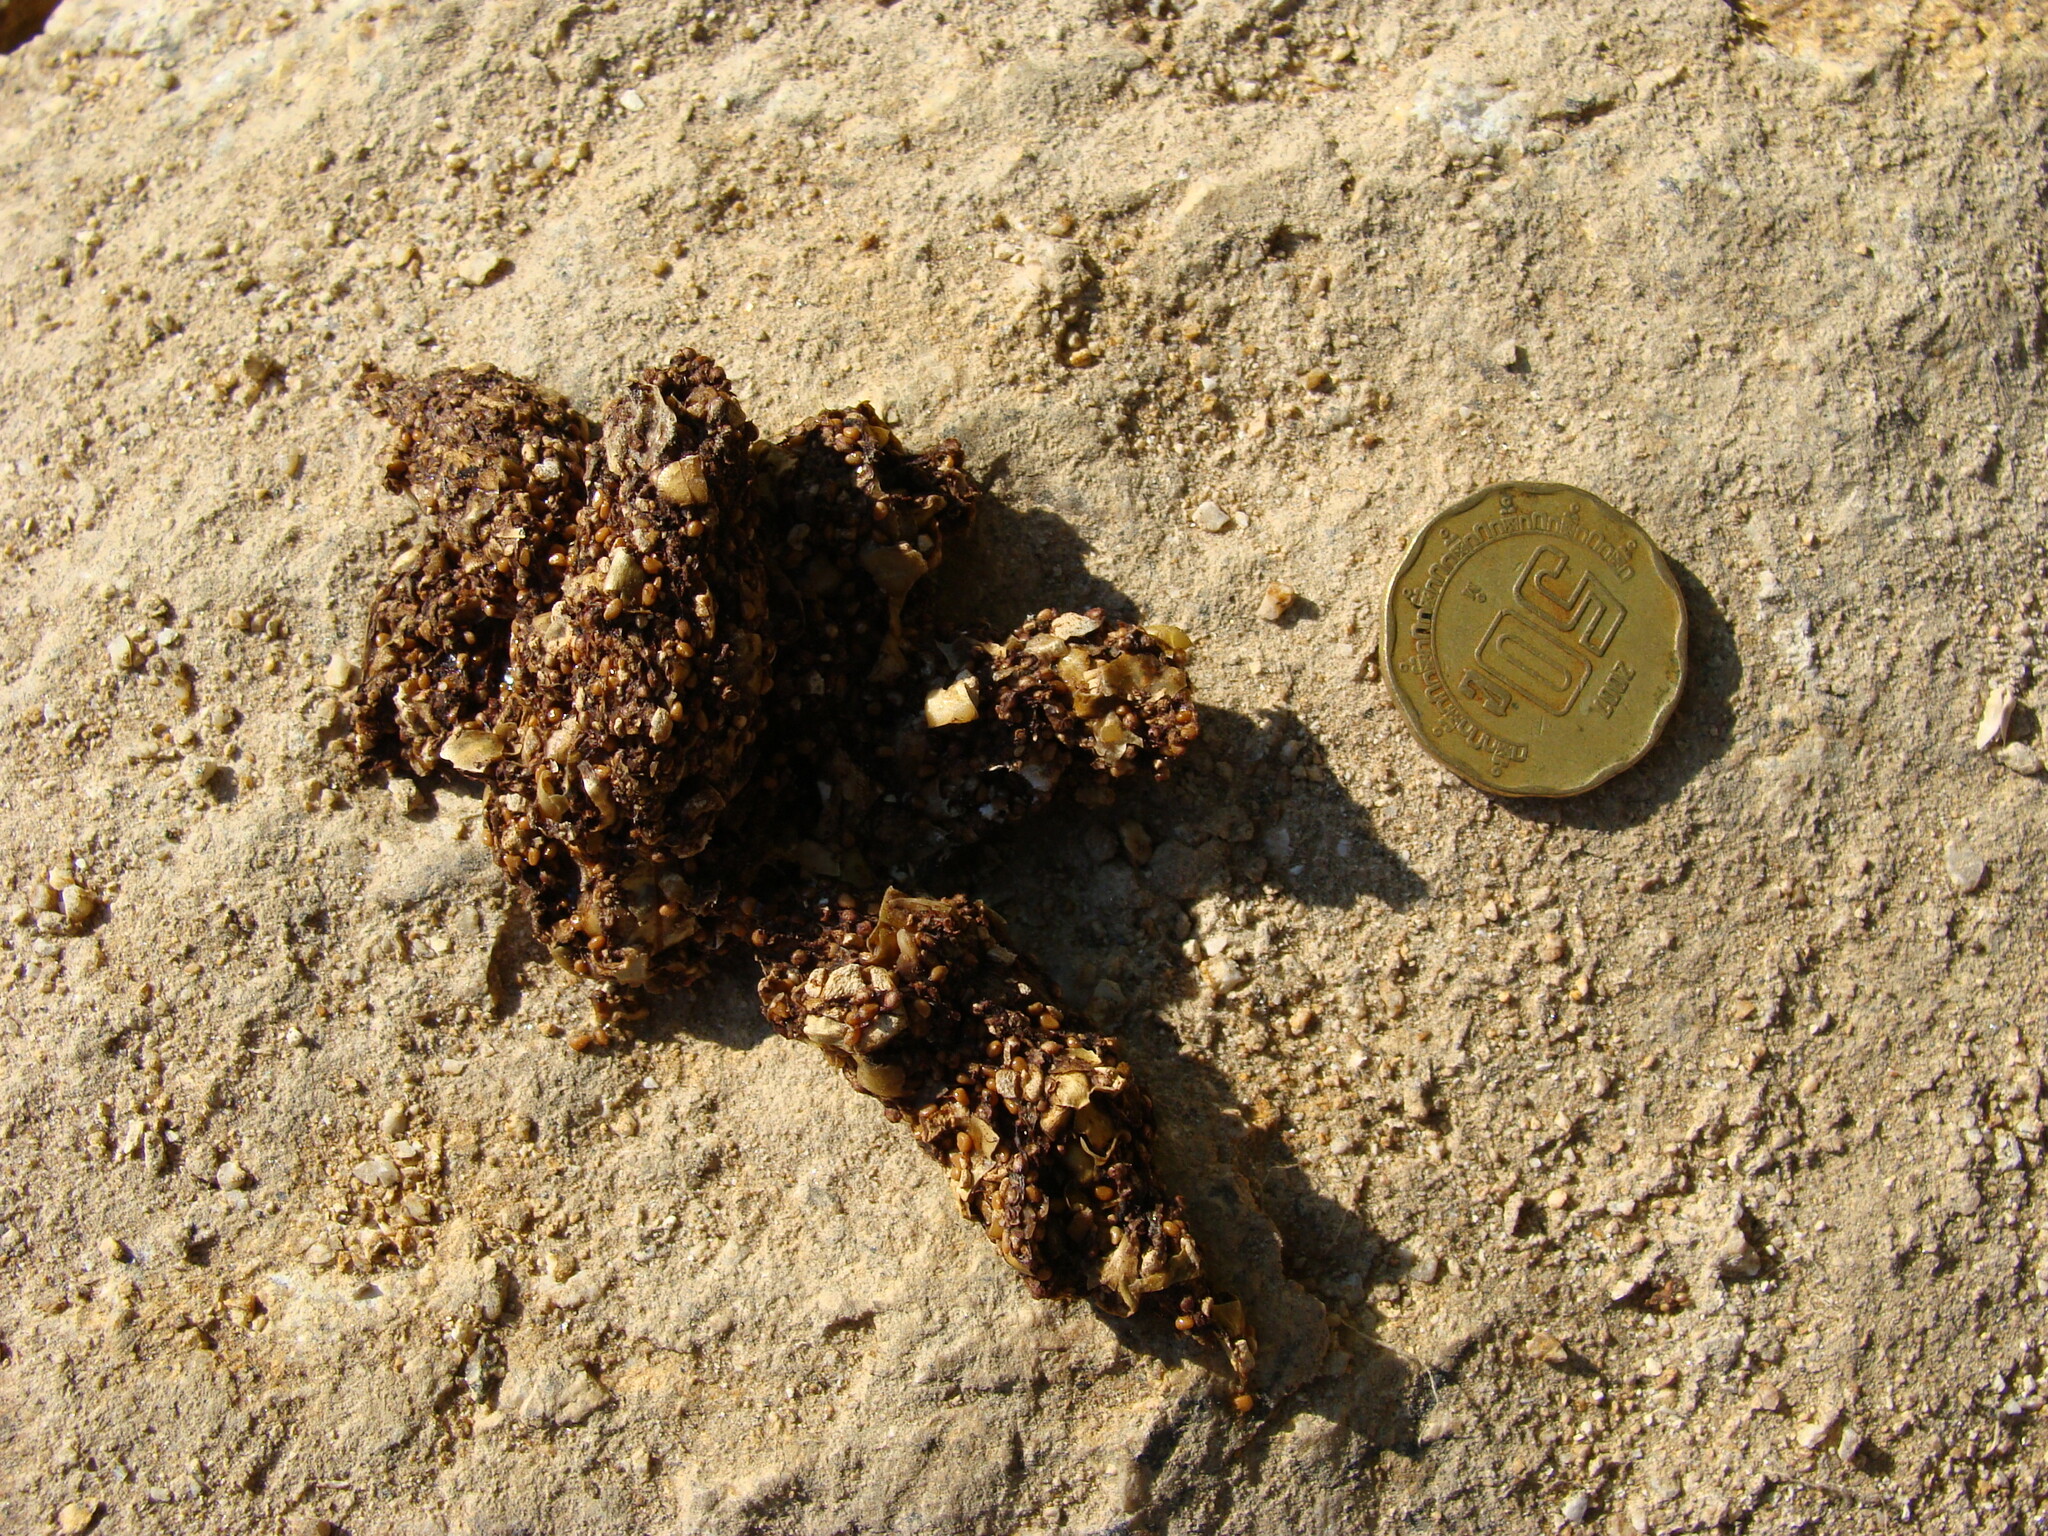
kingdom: Animalia
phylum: Chordata
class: Mammalia
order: Carnivora
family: Procyonidae
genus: Bassariscus
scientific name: Bassariscus astutus
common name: Ringtail
